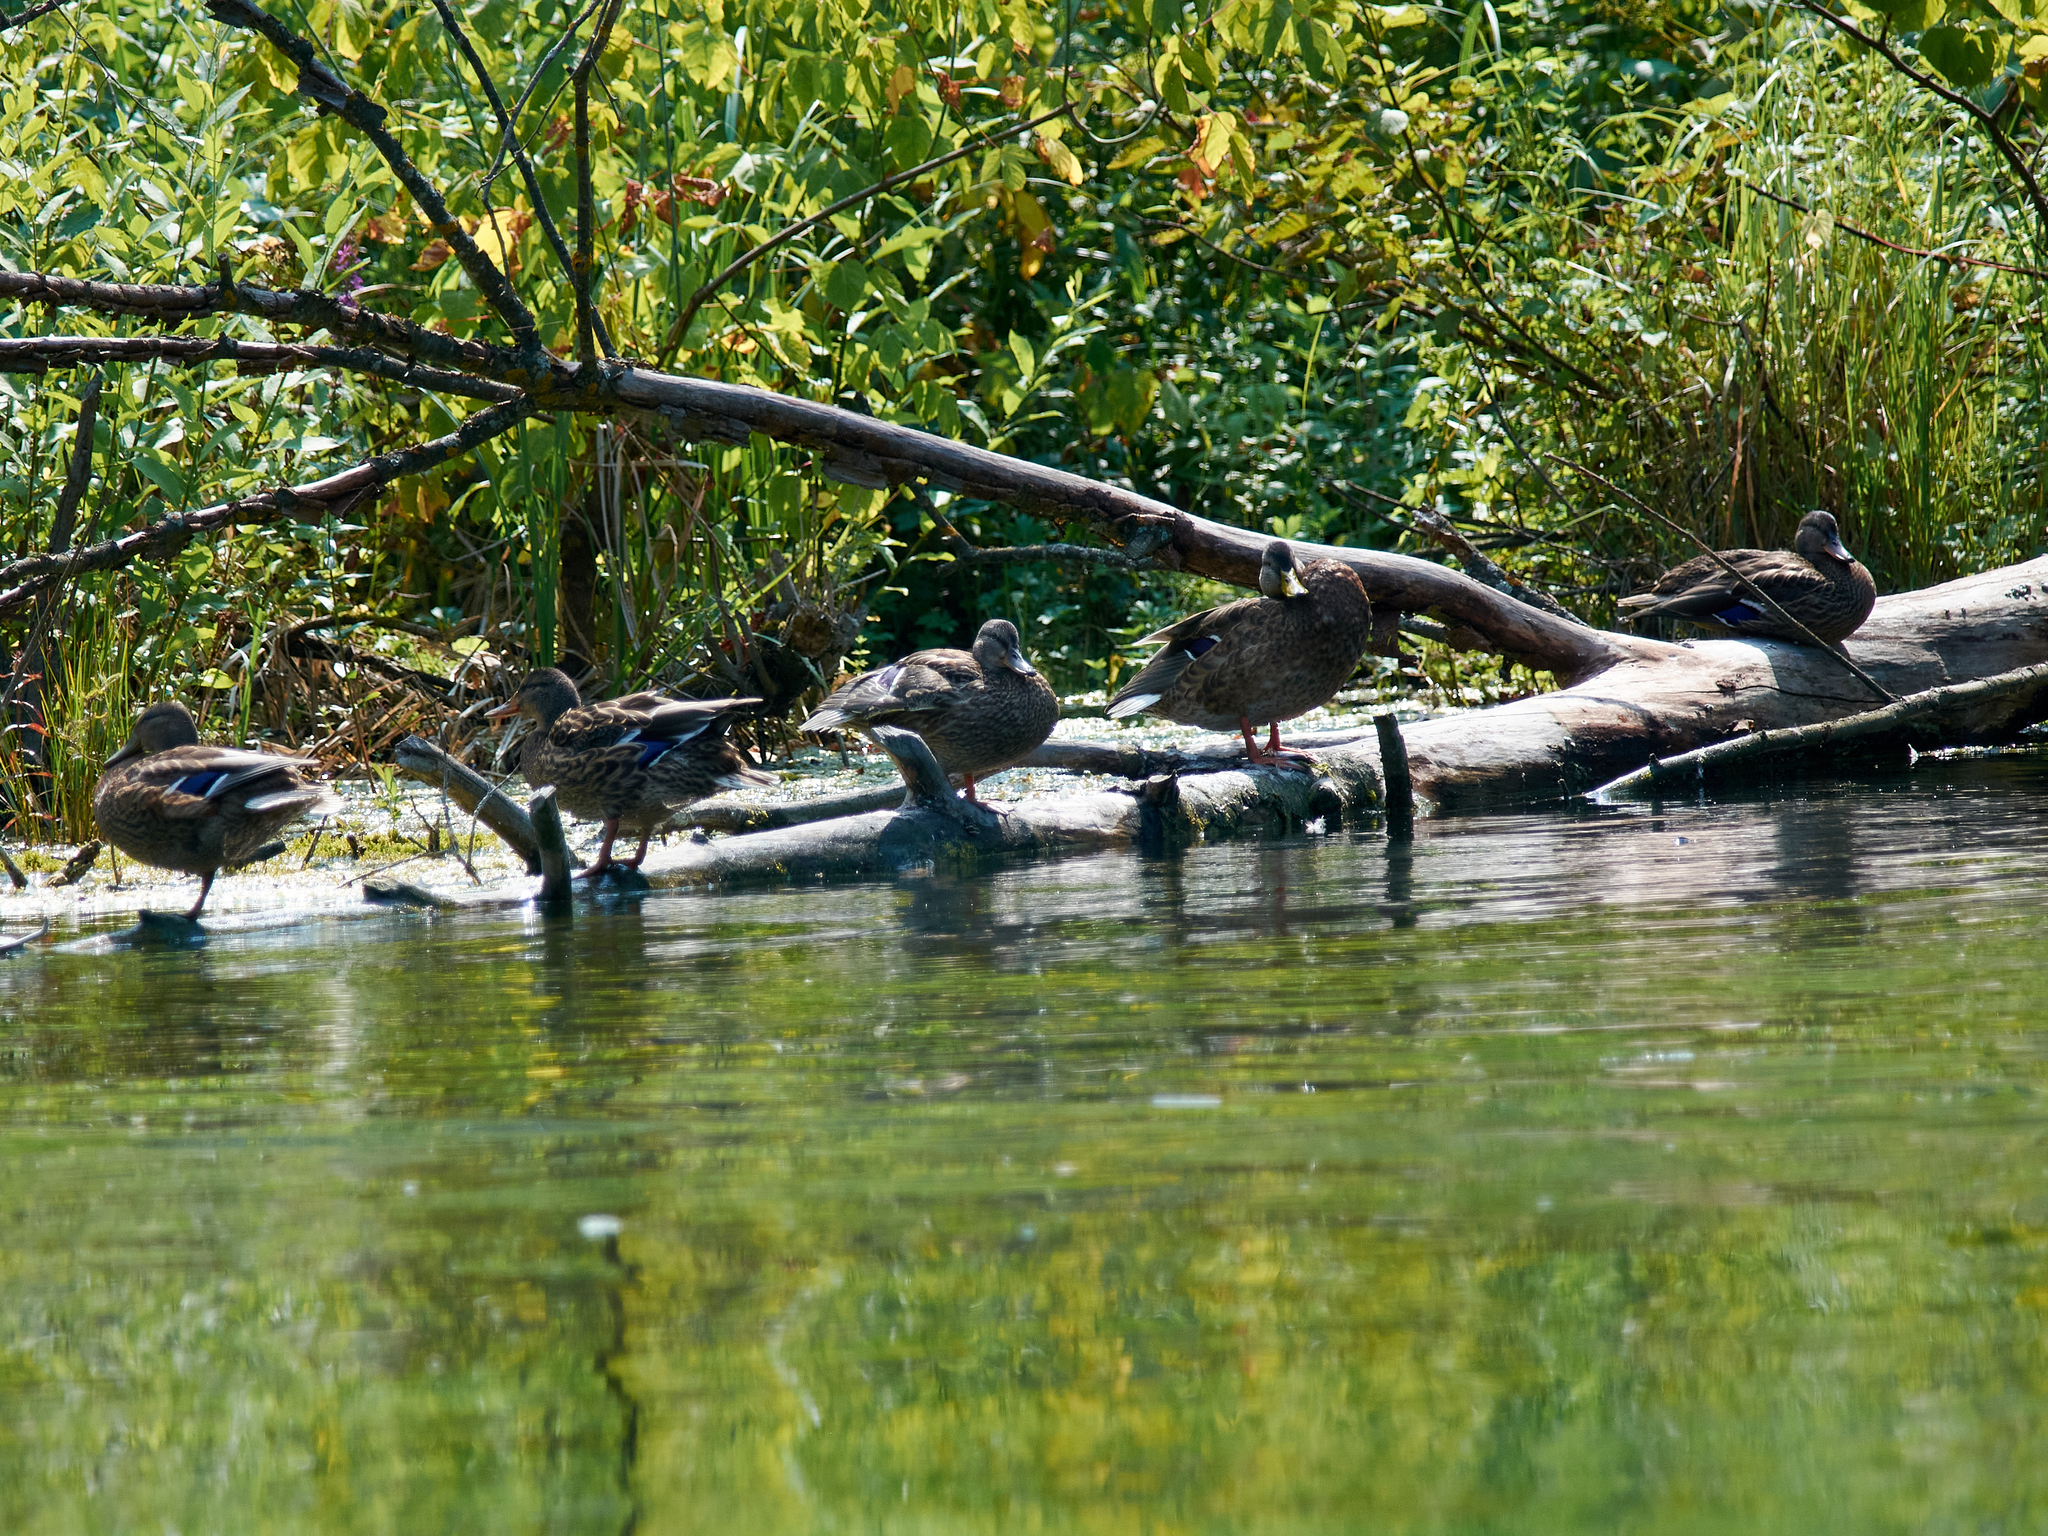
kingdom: Animalia
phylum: Chordata
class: Aves
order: Anseriformes
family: Anatidae
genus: Anas
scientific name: Anas platyrhynchos
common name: Mallard
